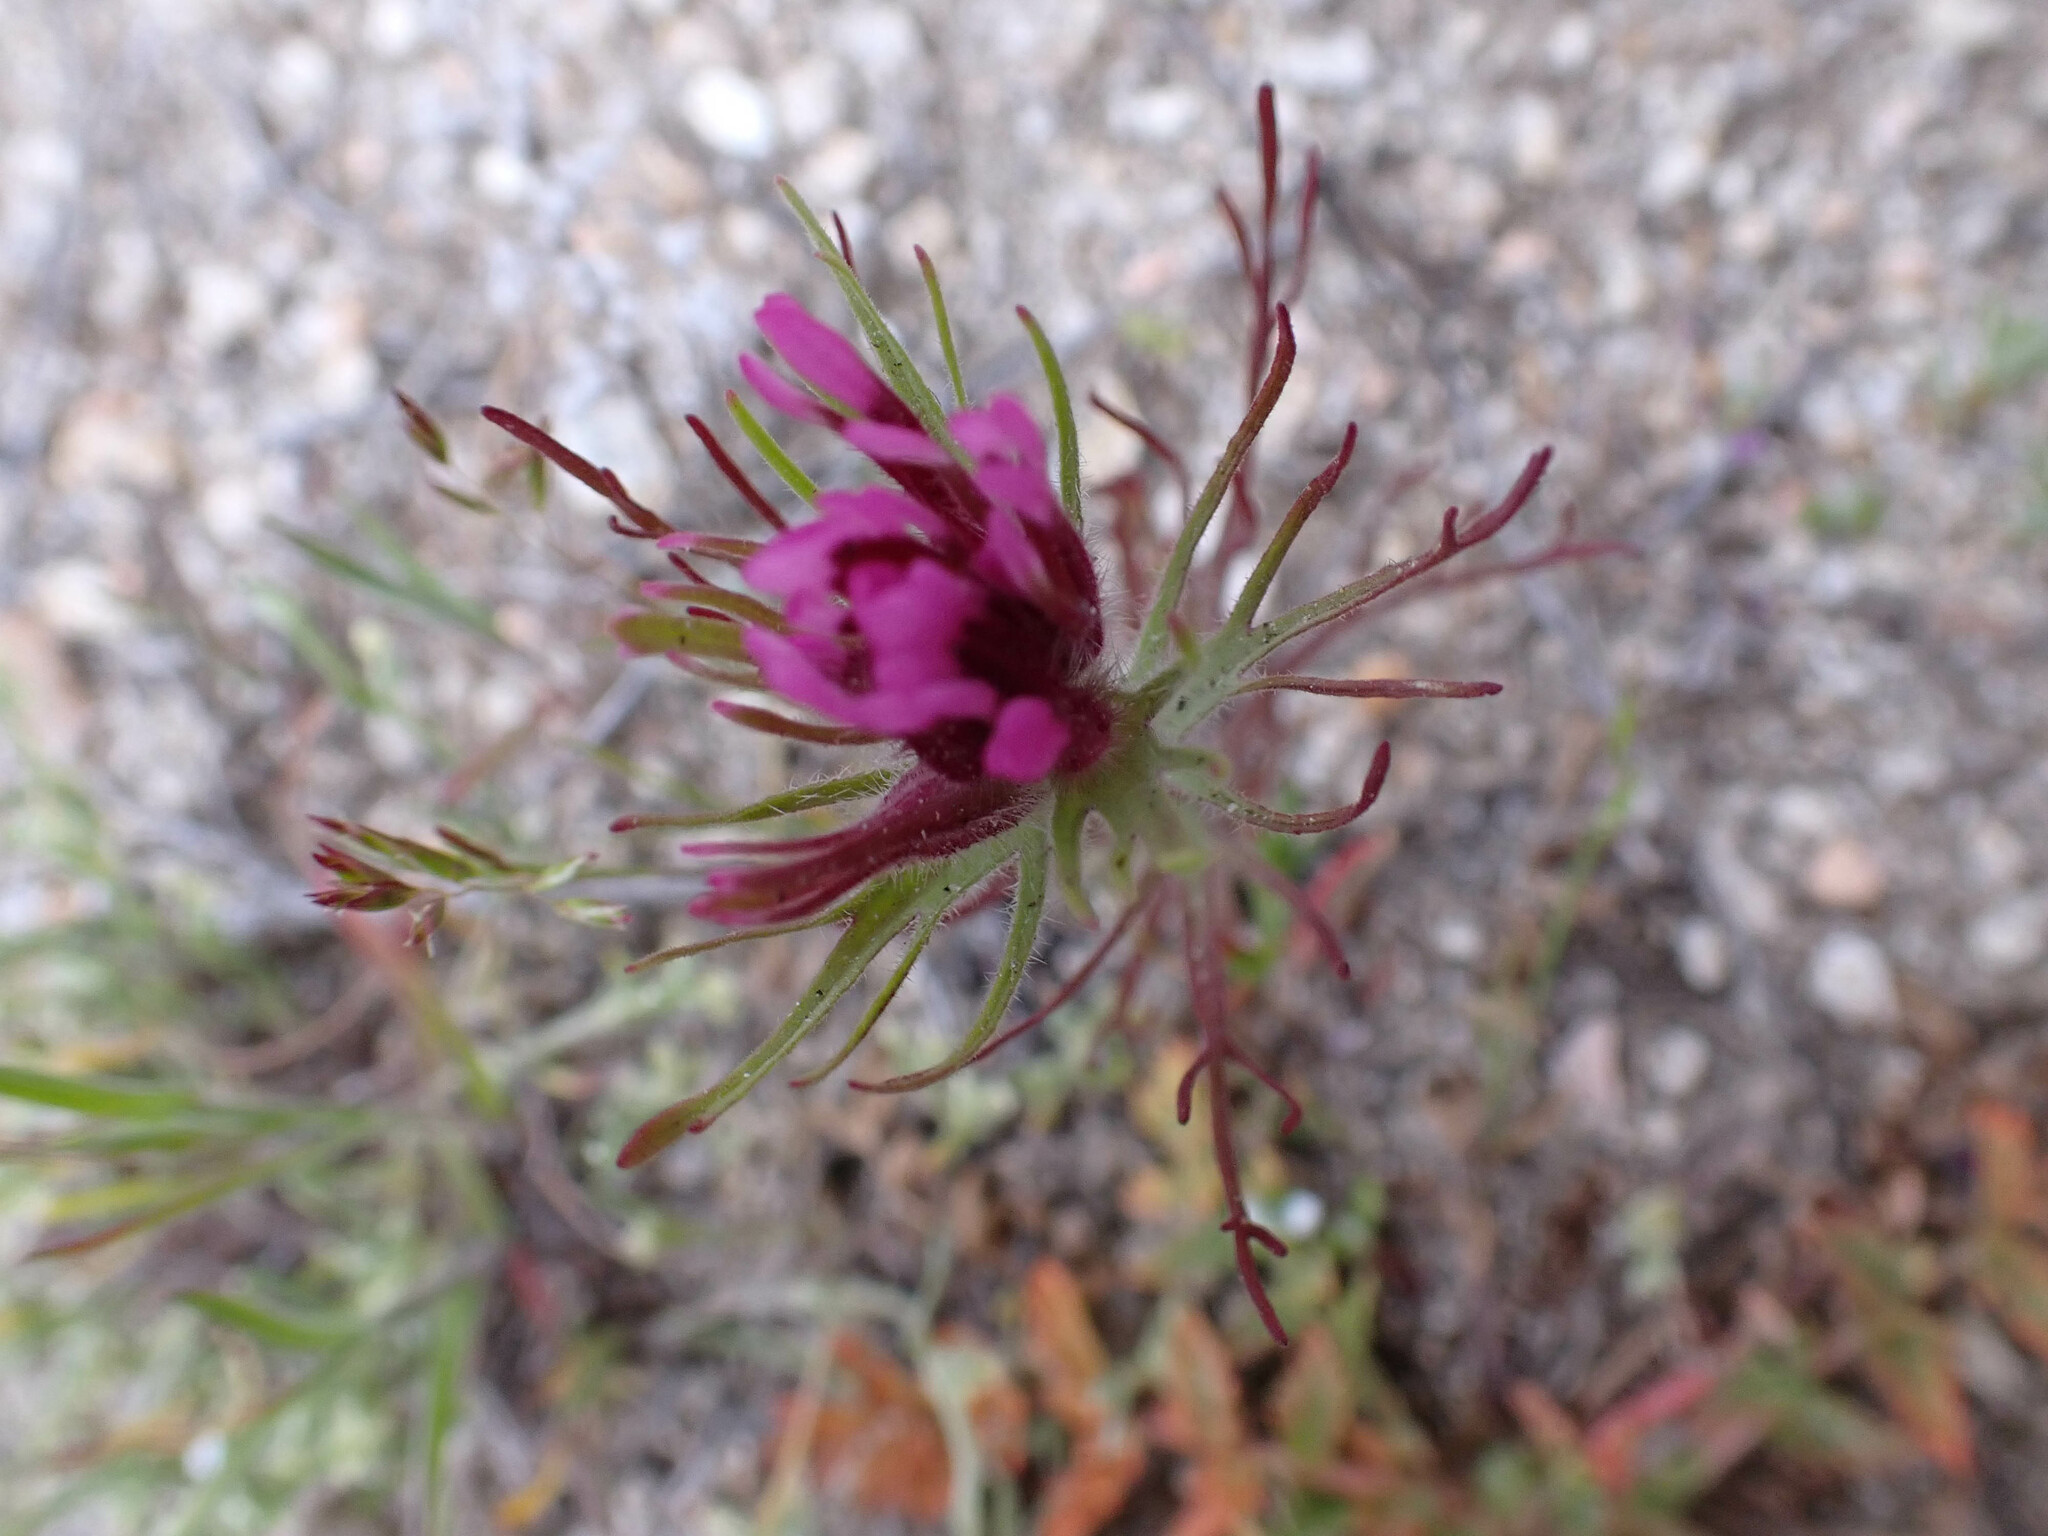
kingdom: Plantae
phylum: Tracheophyta
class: Magnoliopsida
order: Lamiales
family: Orobanchaceae
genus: Castilleja
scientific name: Castilleja exserta
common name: Purple owl-clover
